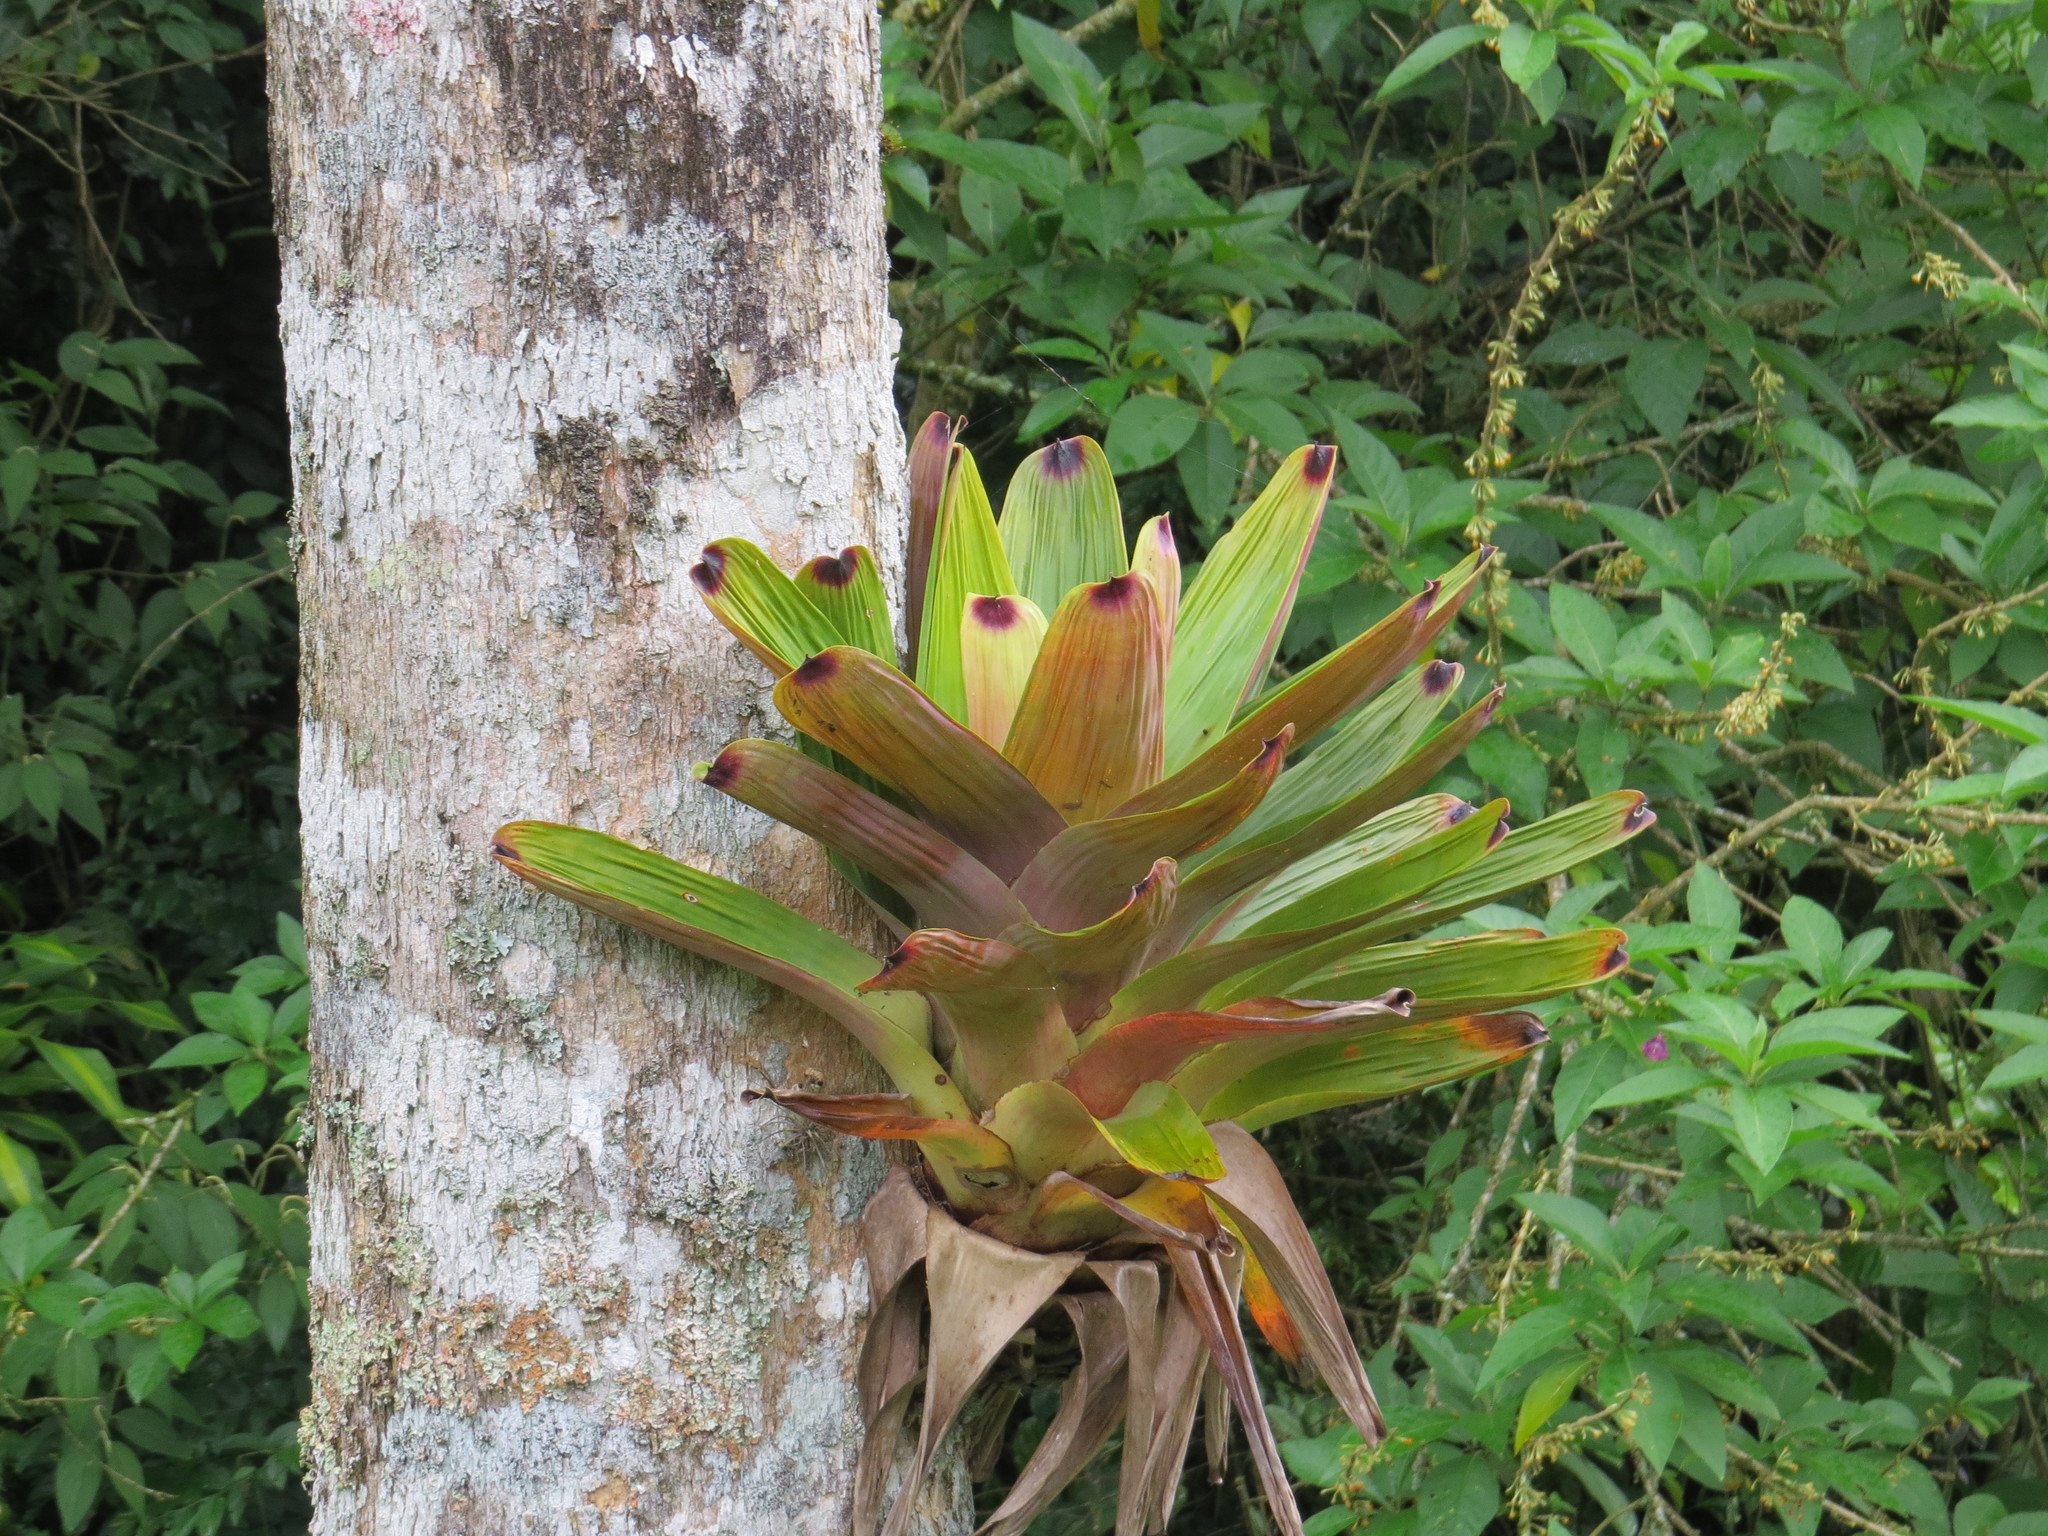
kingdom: Plantae
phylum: Tracheophyta
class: Liliopsida
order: Poales
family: Bromeliaceae
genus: Vriesea
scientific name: Vriesea bituminosa
